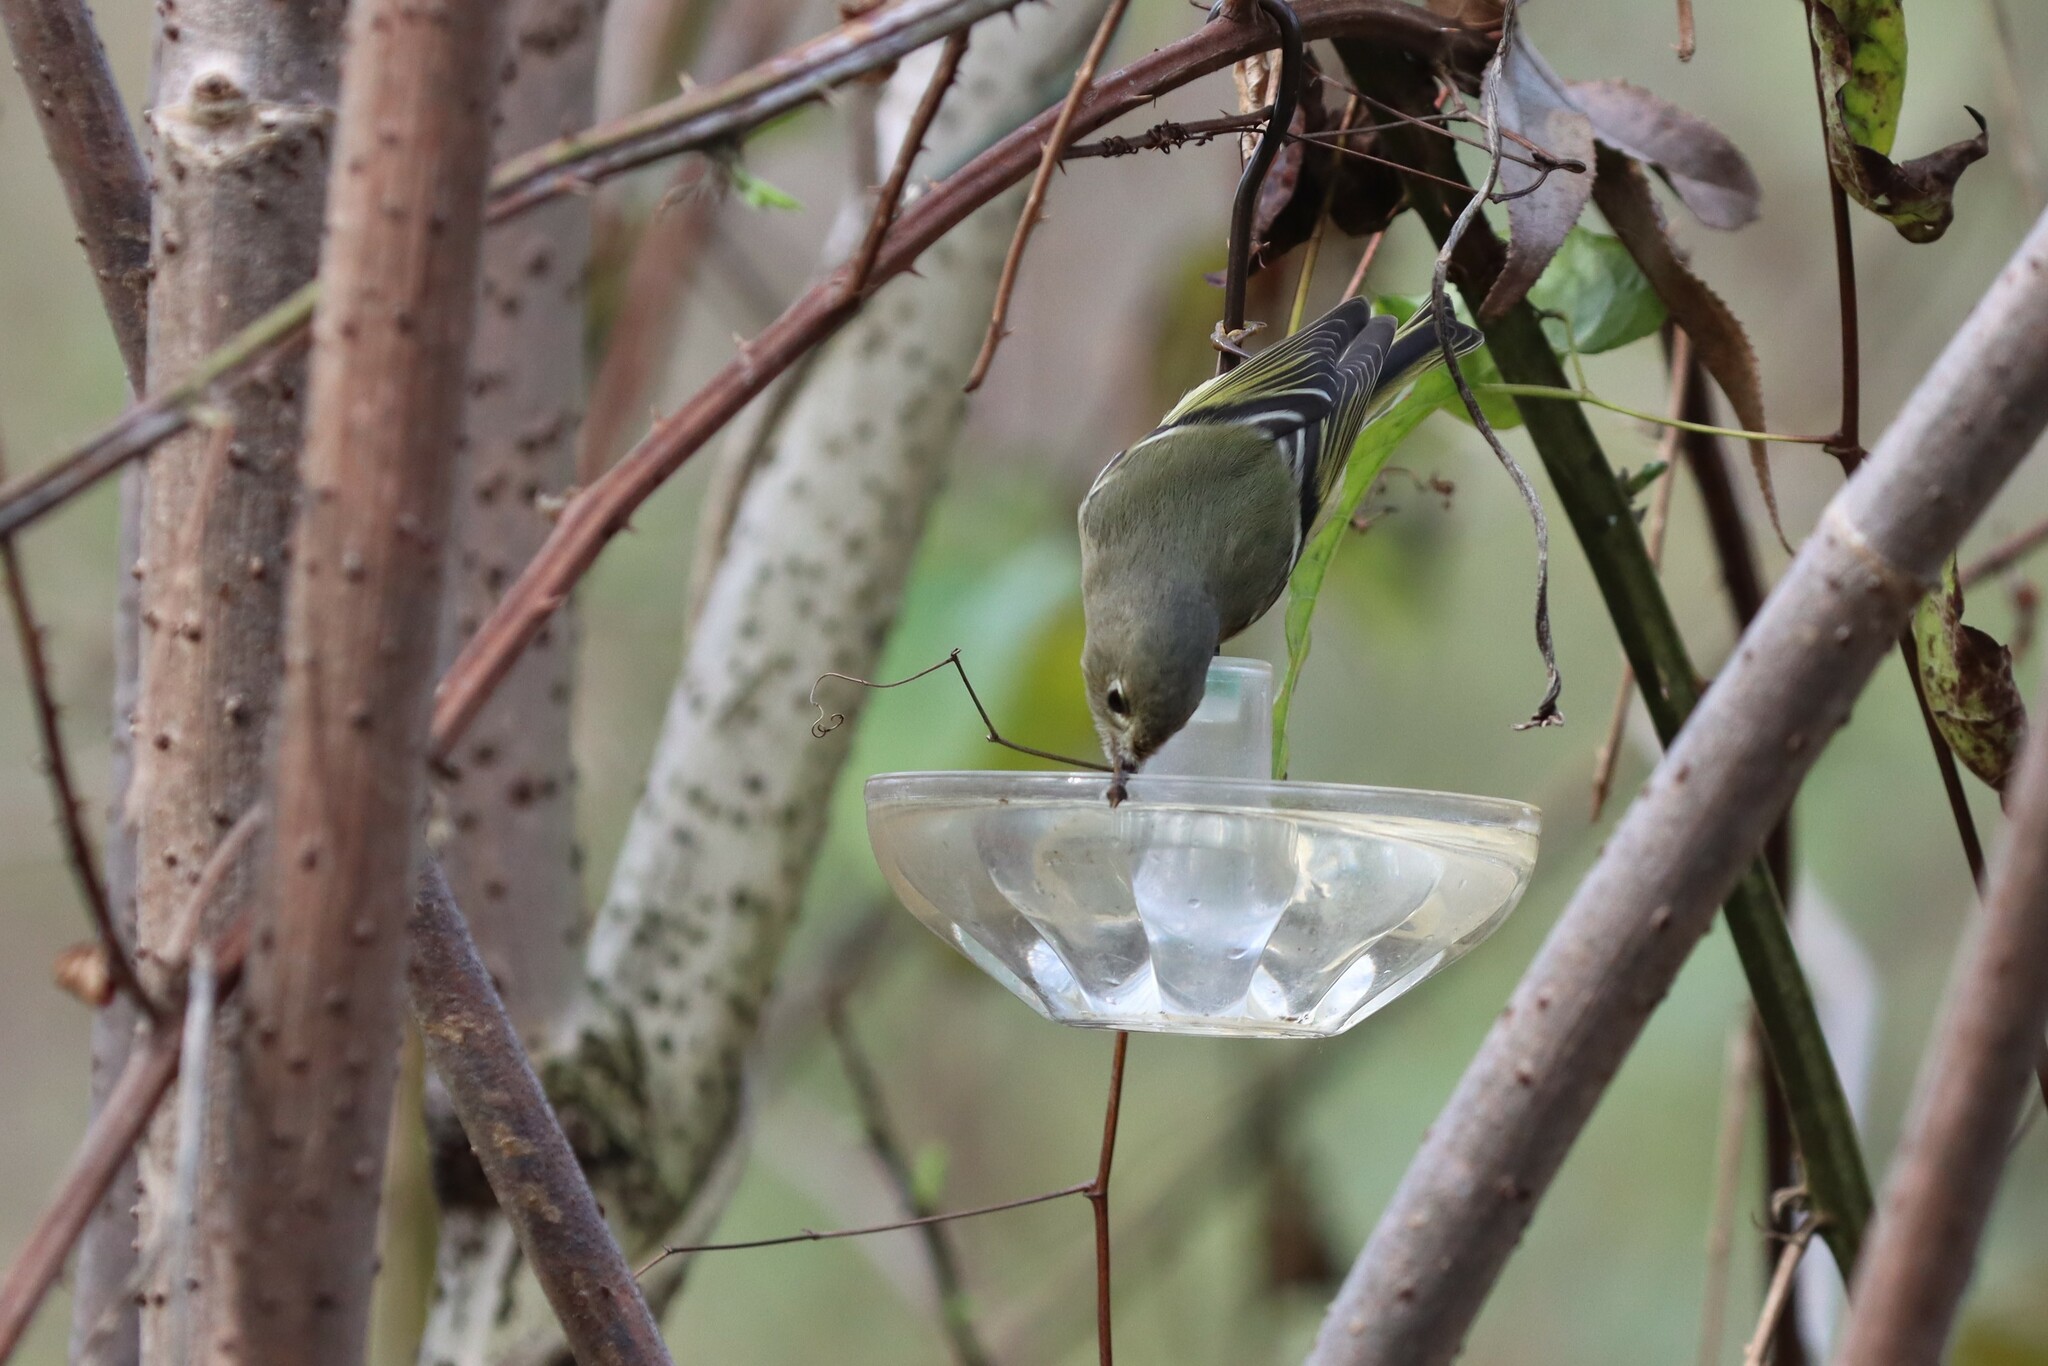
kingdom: Animalia
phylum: Chordata
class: Aves
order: Passeriformes
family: Regulidae
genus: Regulus
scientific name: Regulus calendula
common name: Ruby-crowned kinglet
